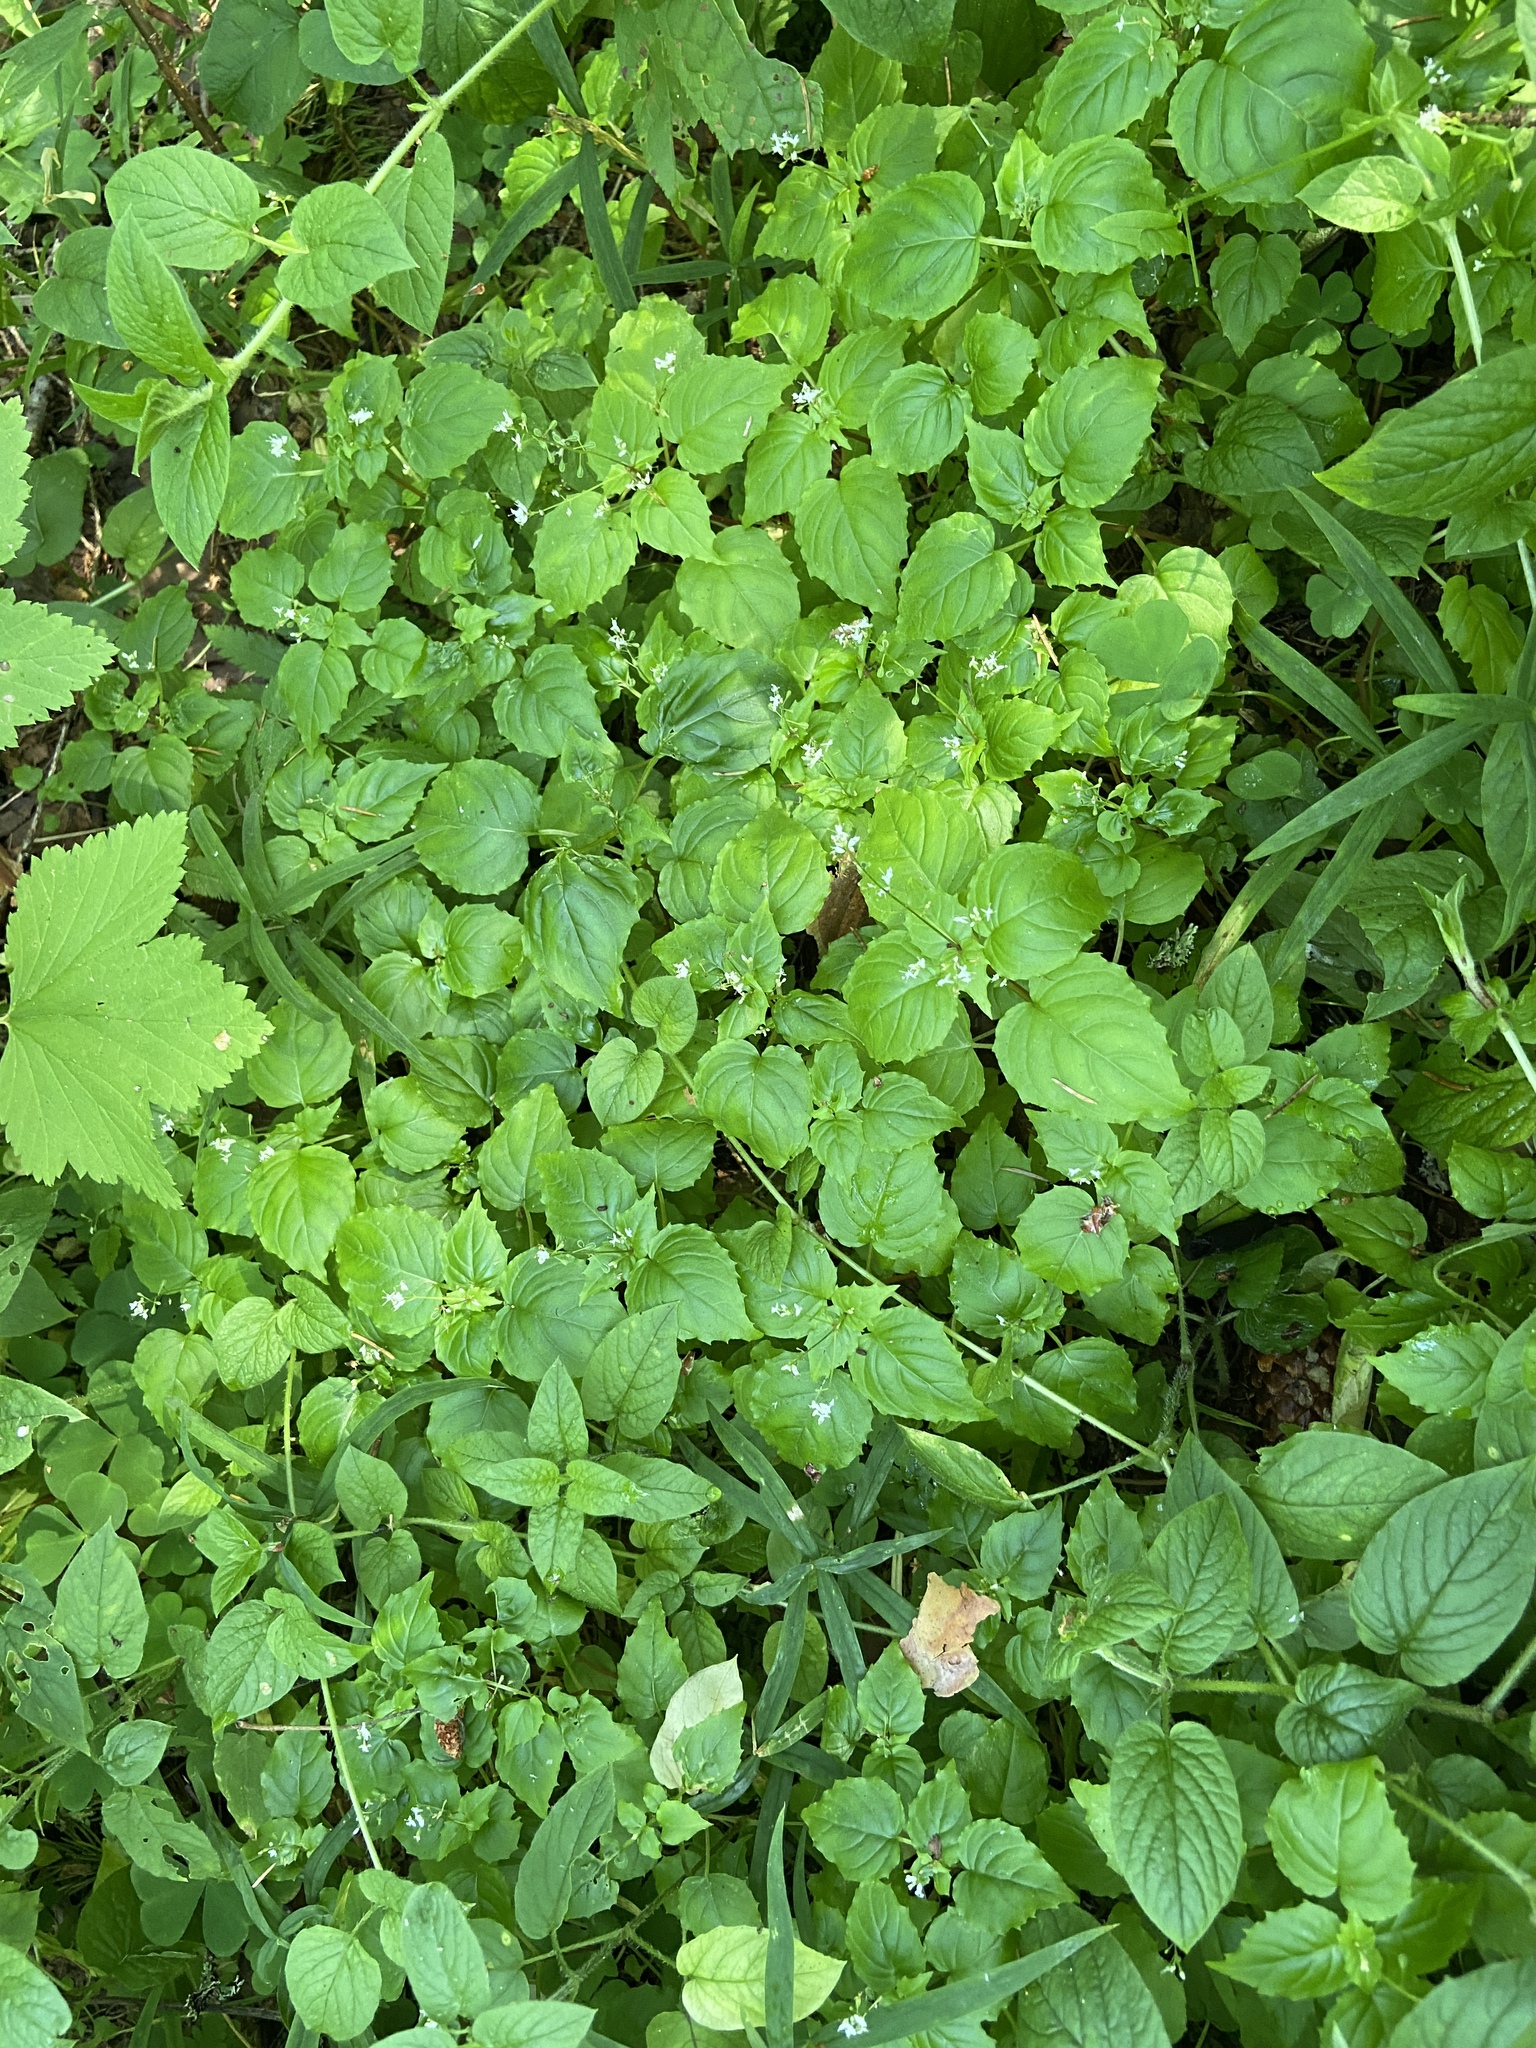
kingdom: Plantae
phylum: Tracheophyta
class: Magnoliopsida
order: Myrtales
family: Onagraceae
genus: Circaea
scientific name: Circaea alpina
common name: Alpine enchanter's-nightshade
